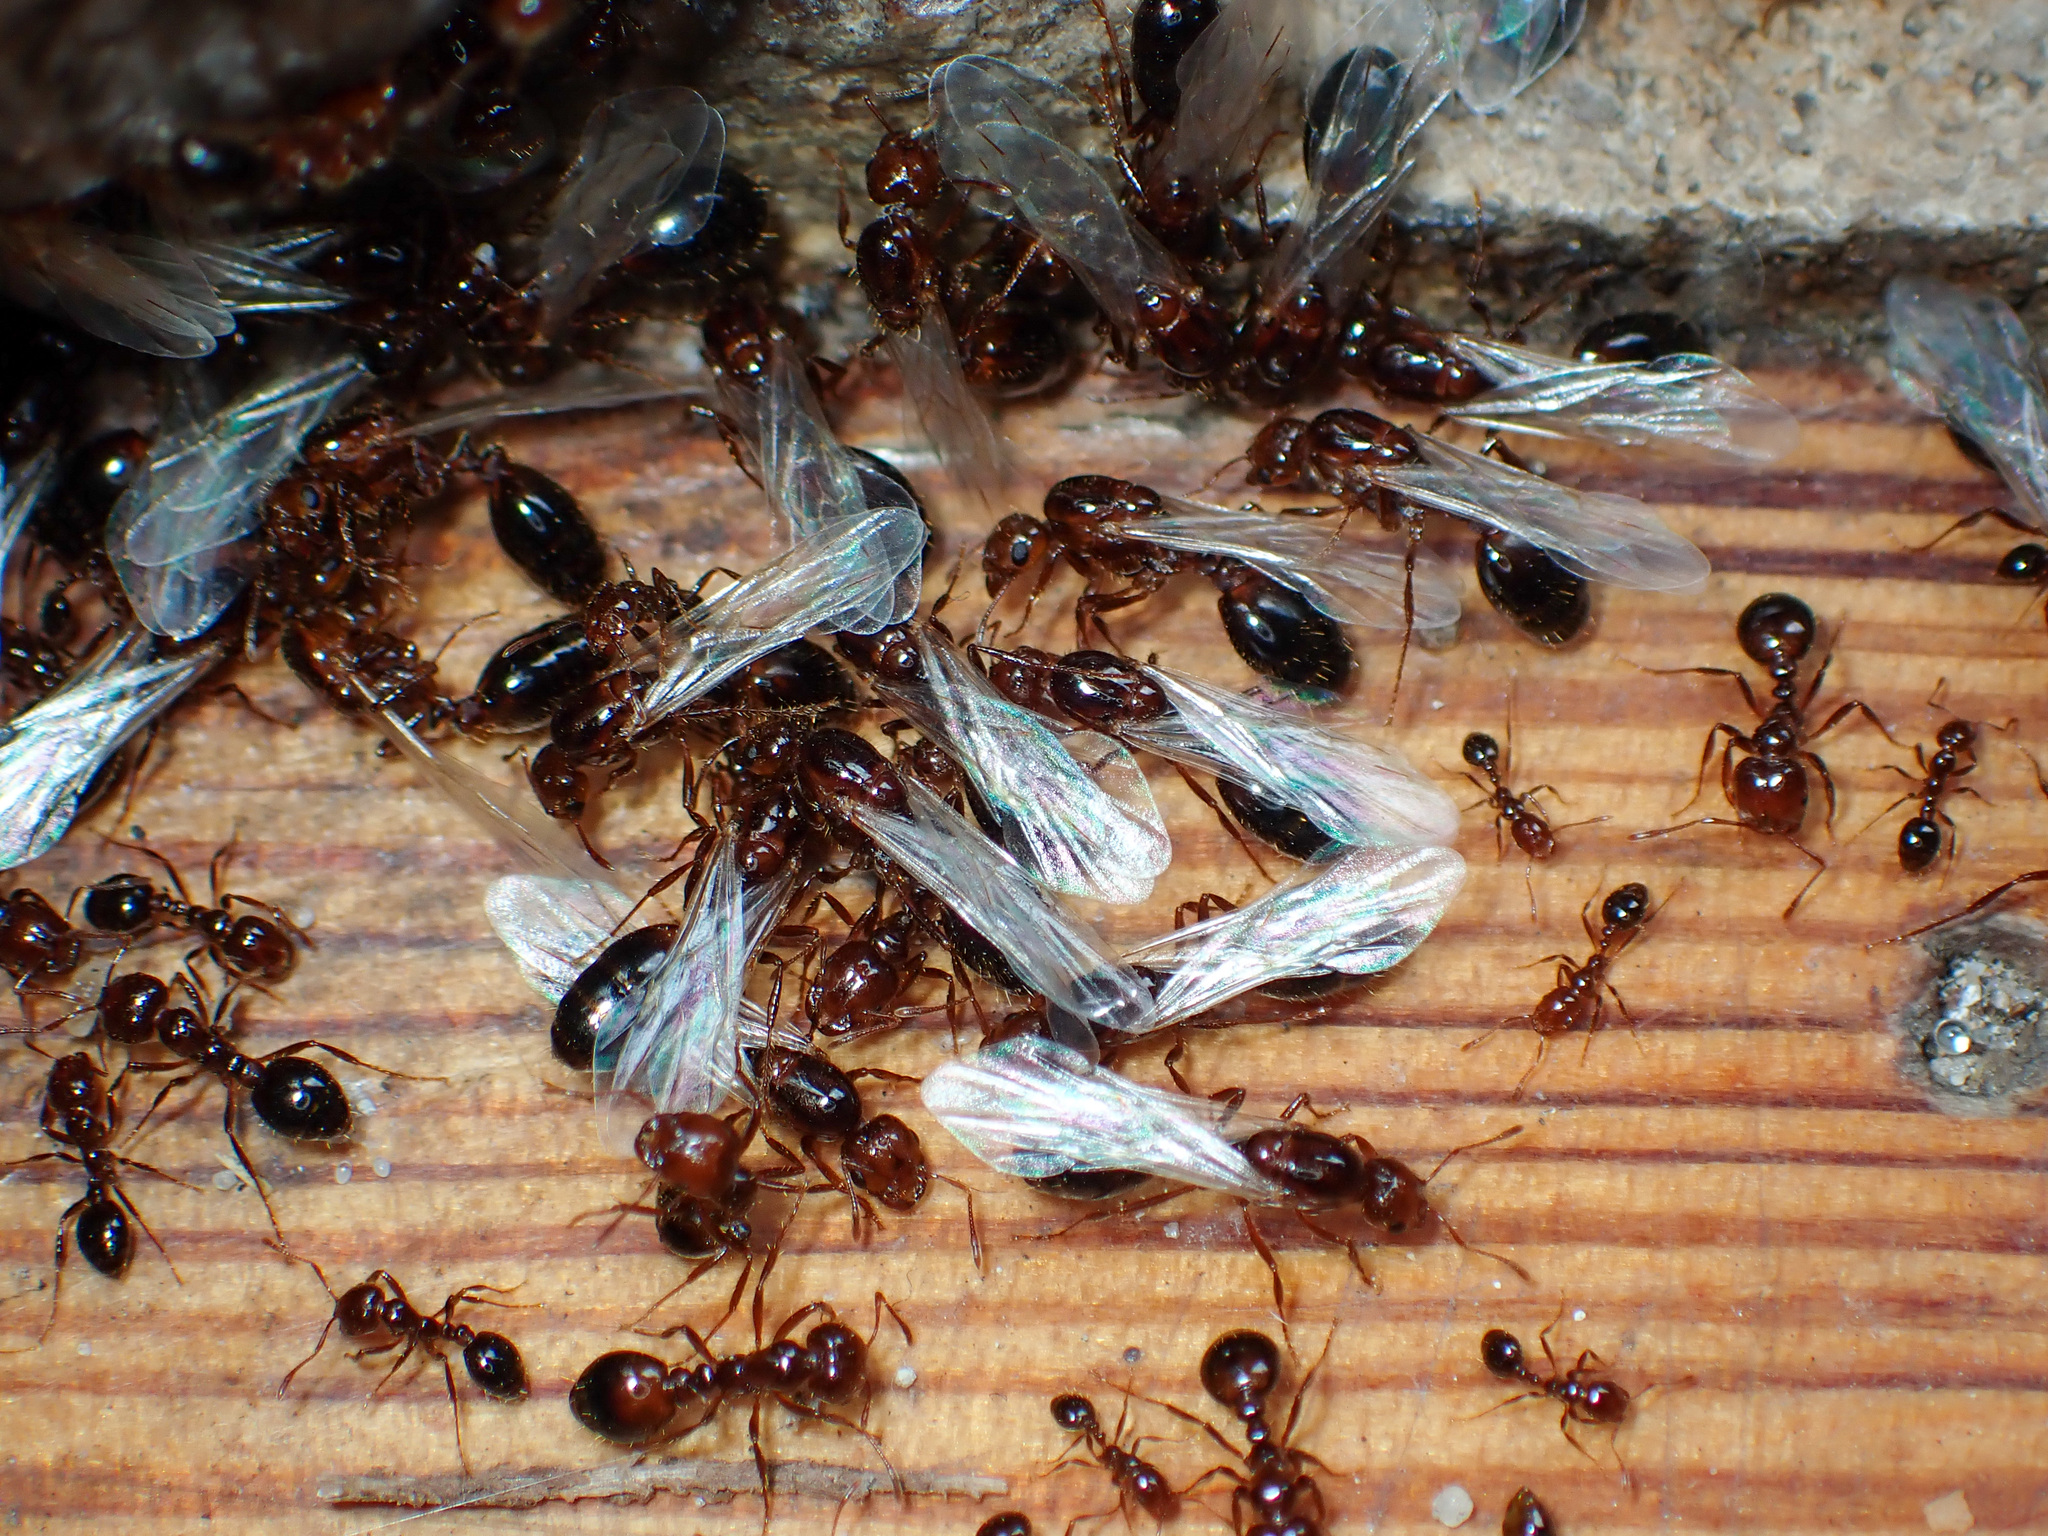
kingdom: Animalia
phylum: Arthropoda
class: Insecta
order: Hymenoptera
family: Formicidae
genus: Solenopsis
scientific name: Solenopsis invicta
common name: Red imported fire ant
